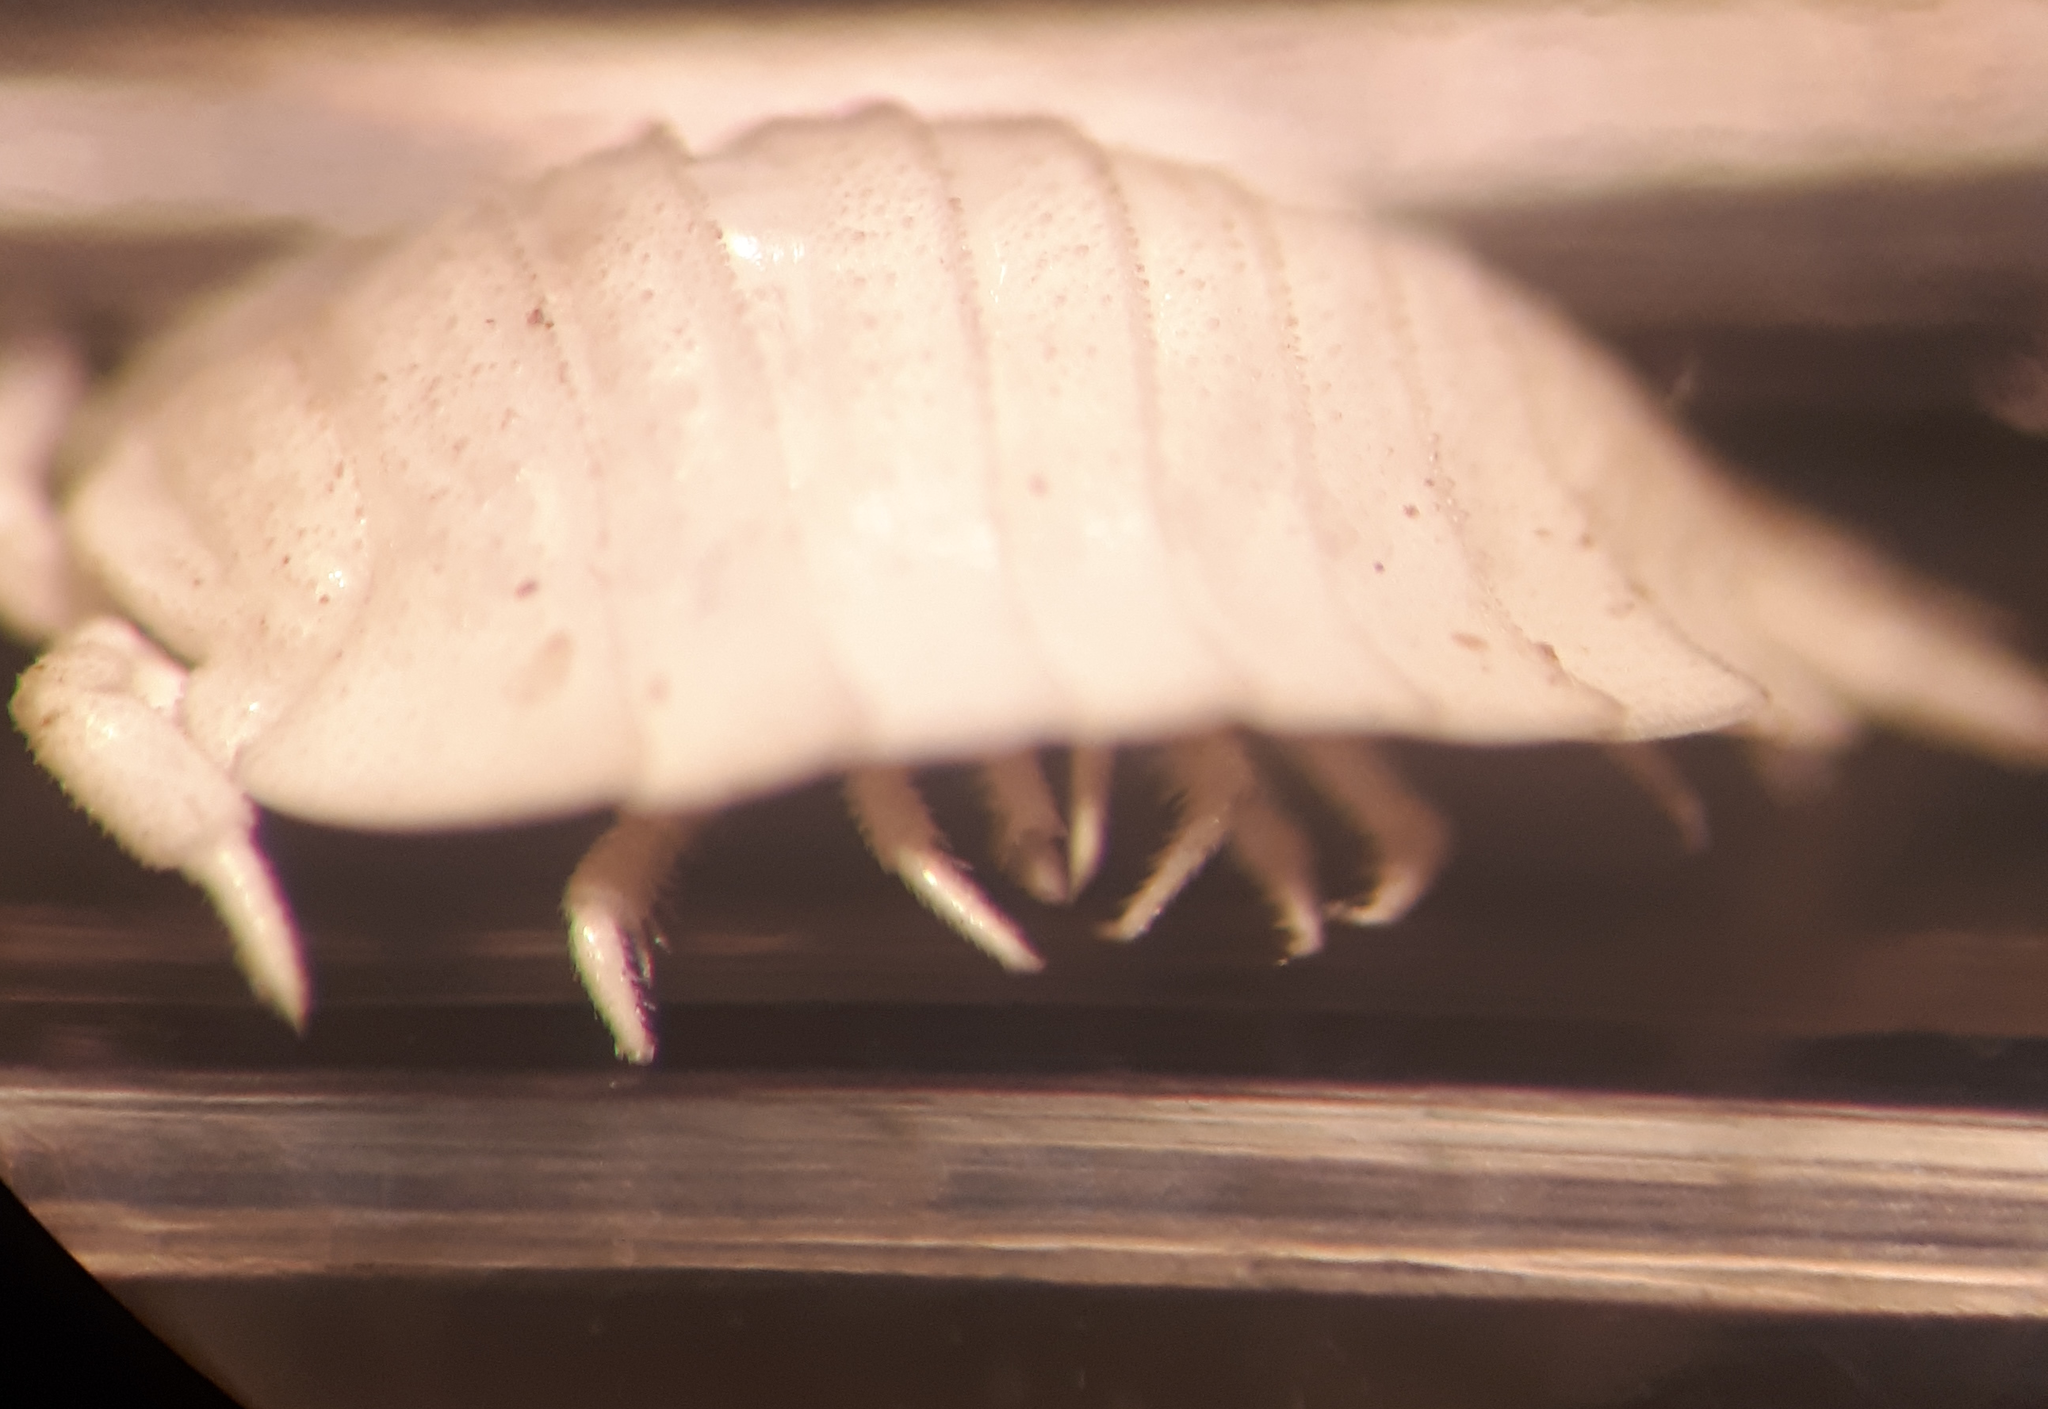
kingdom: Animalia
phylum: Arthropoda
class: Malacostraca
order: Isopoda
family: Platyarthridae
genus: Platyarthrus
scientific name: Platyarthrus hoffmannseggii
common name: Ant woodlouse
